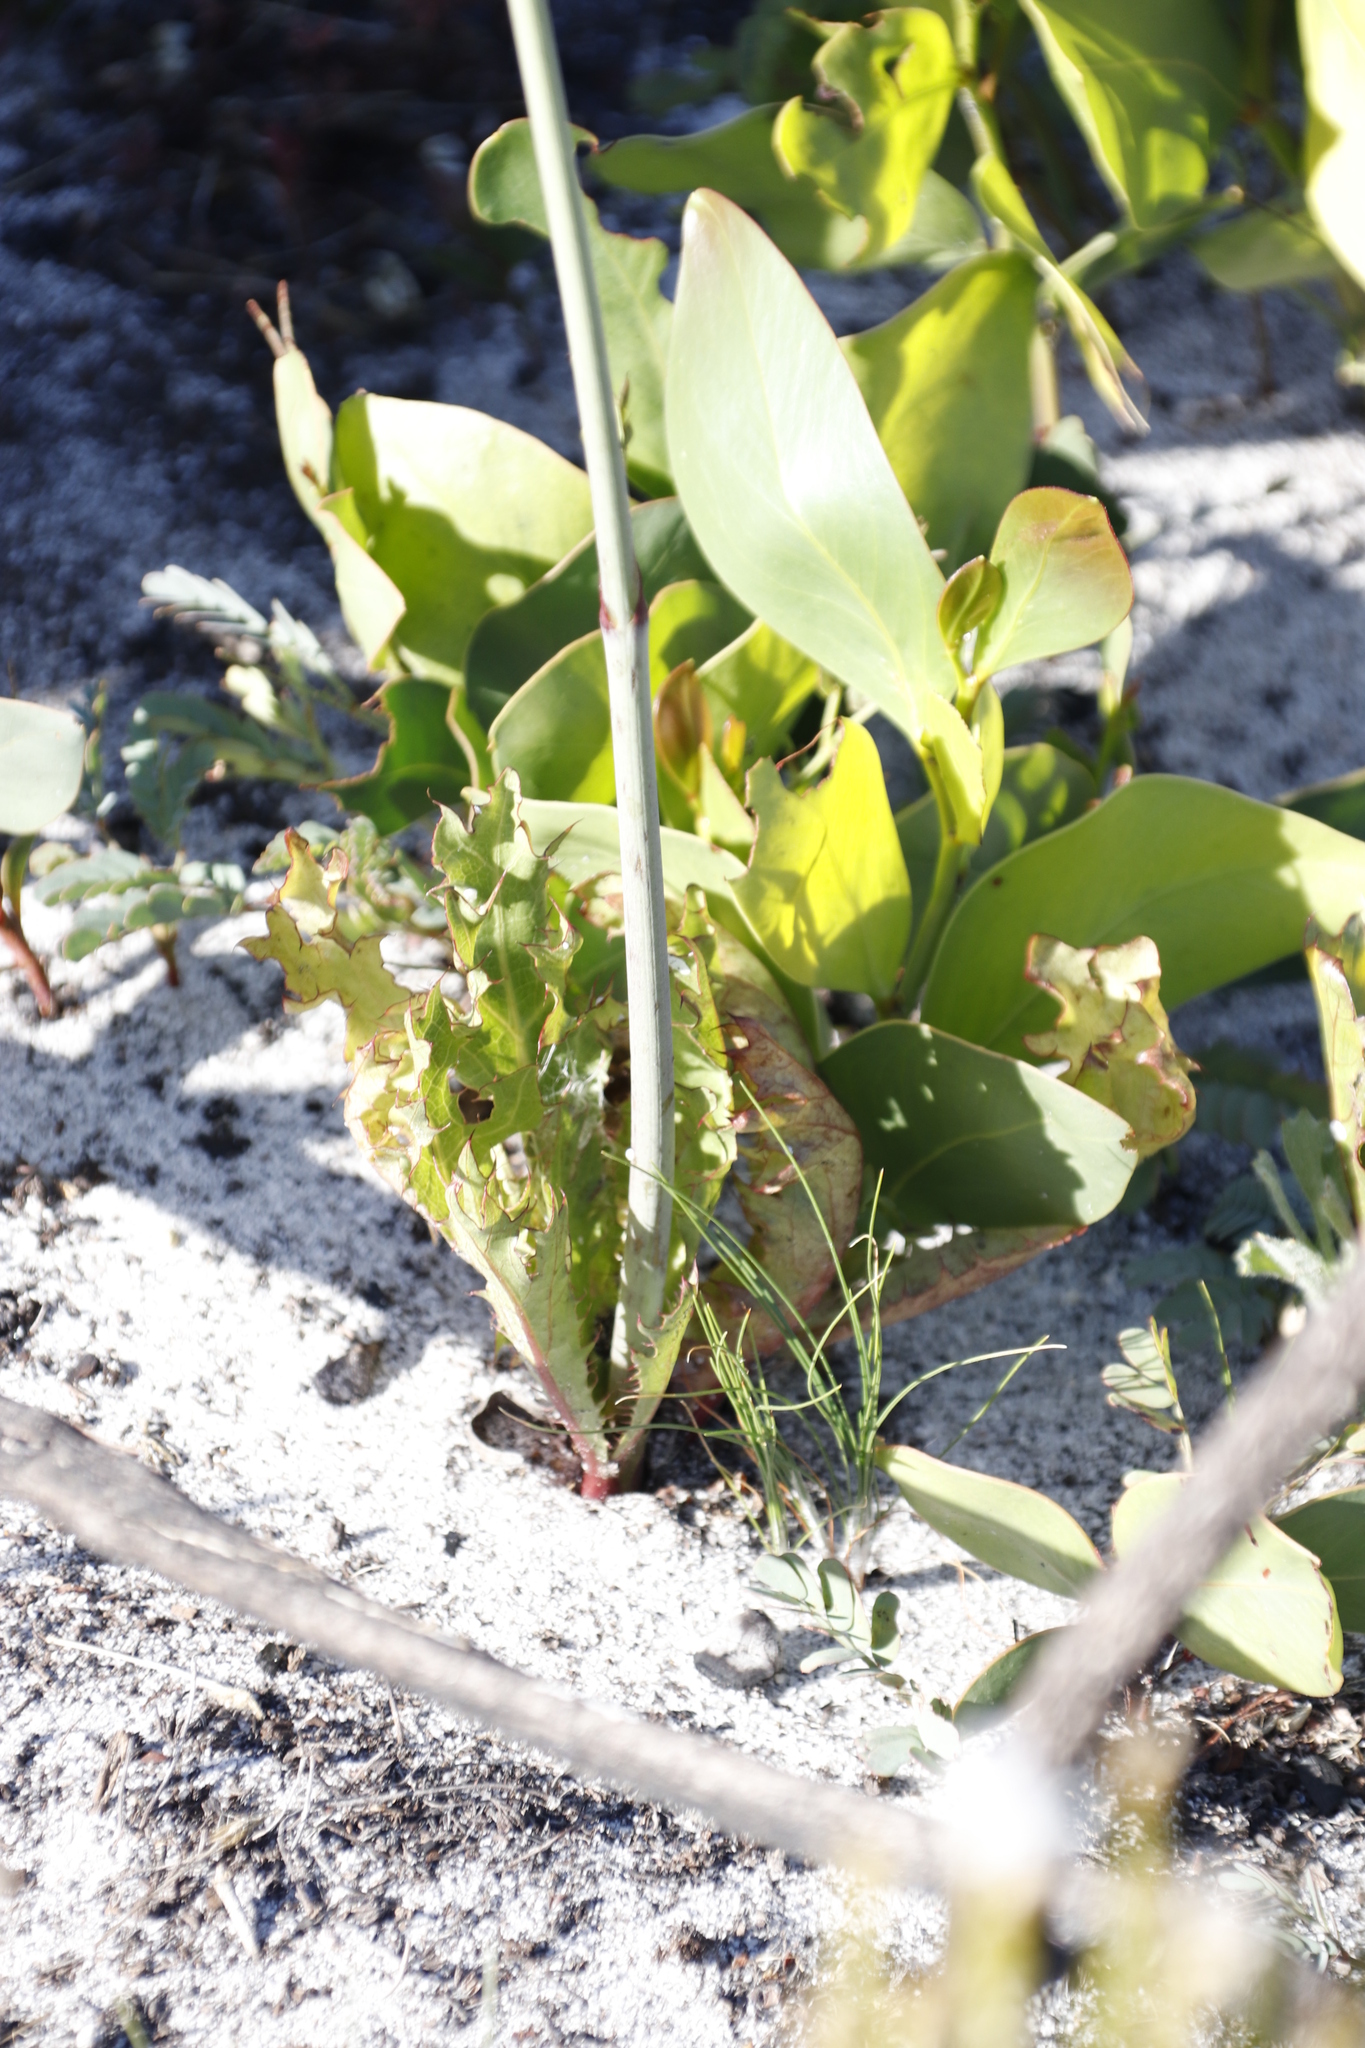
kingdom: Plantae
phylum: Tracheophyta
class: Magnoliopsida
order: Apiales
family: Apiaceae
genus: Lichtensteinia
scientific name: Lichtensteinia lacera
